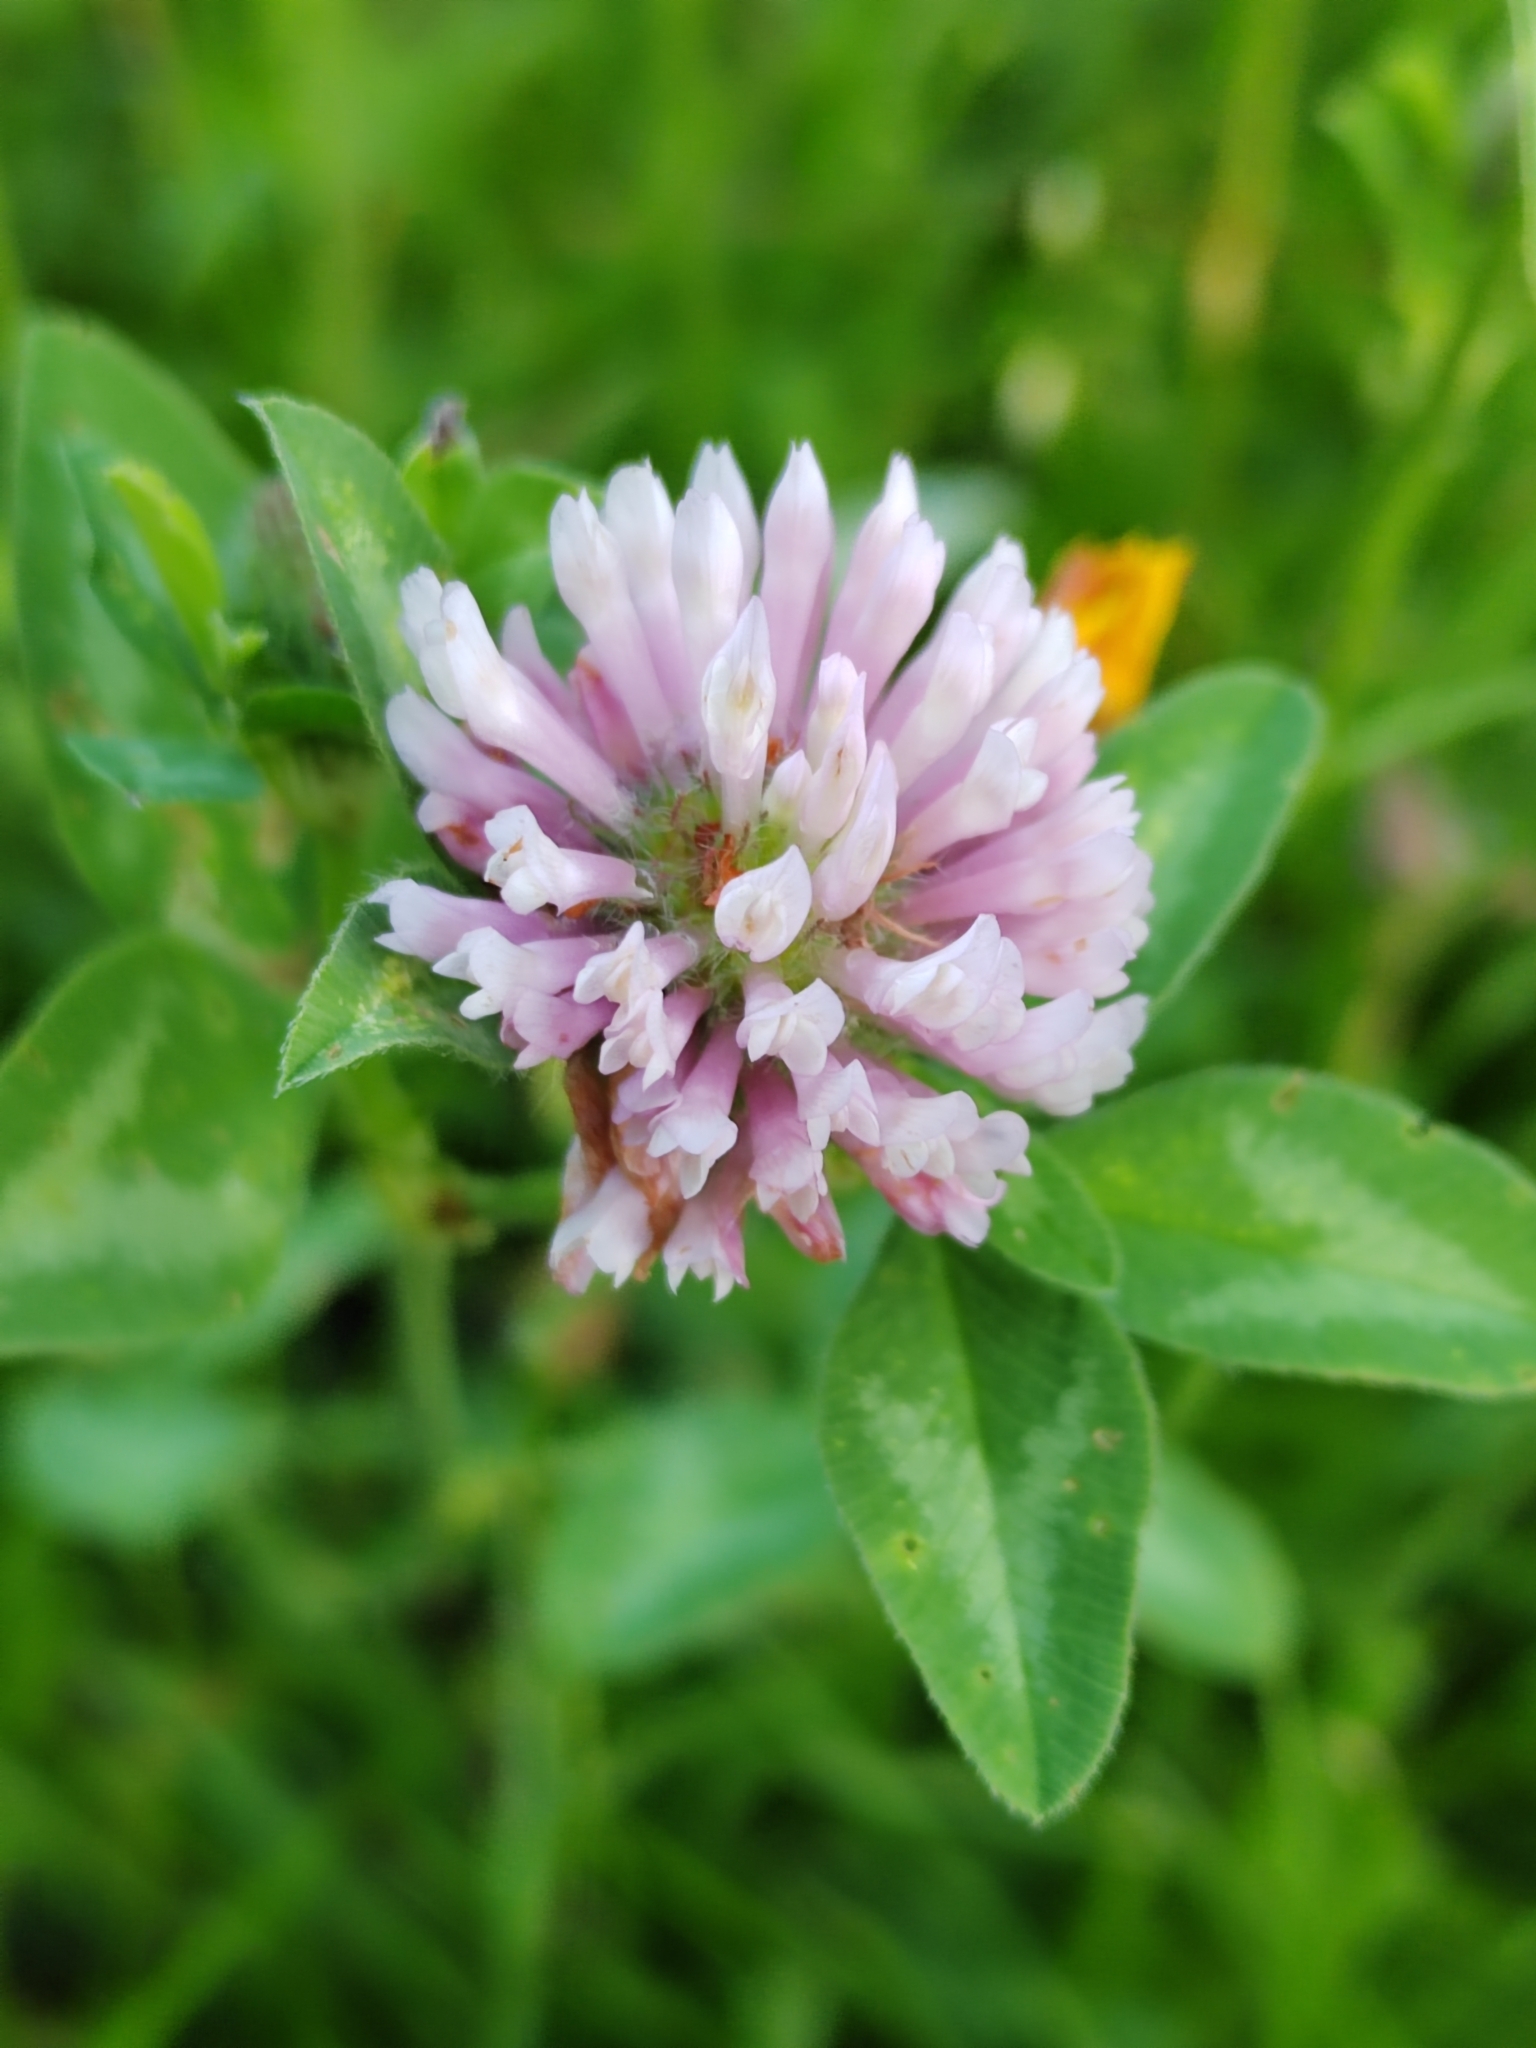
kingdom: Plantae
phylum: Tracheophyta
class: Magnoliopsida
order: Fabales
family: Fabaceae
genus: Trifolium
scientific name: Trifolium pratense
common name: Red clover
